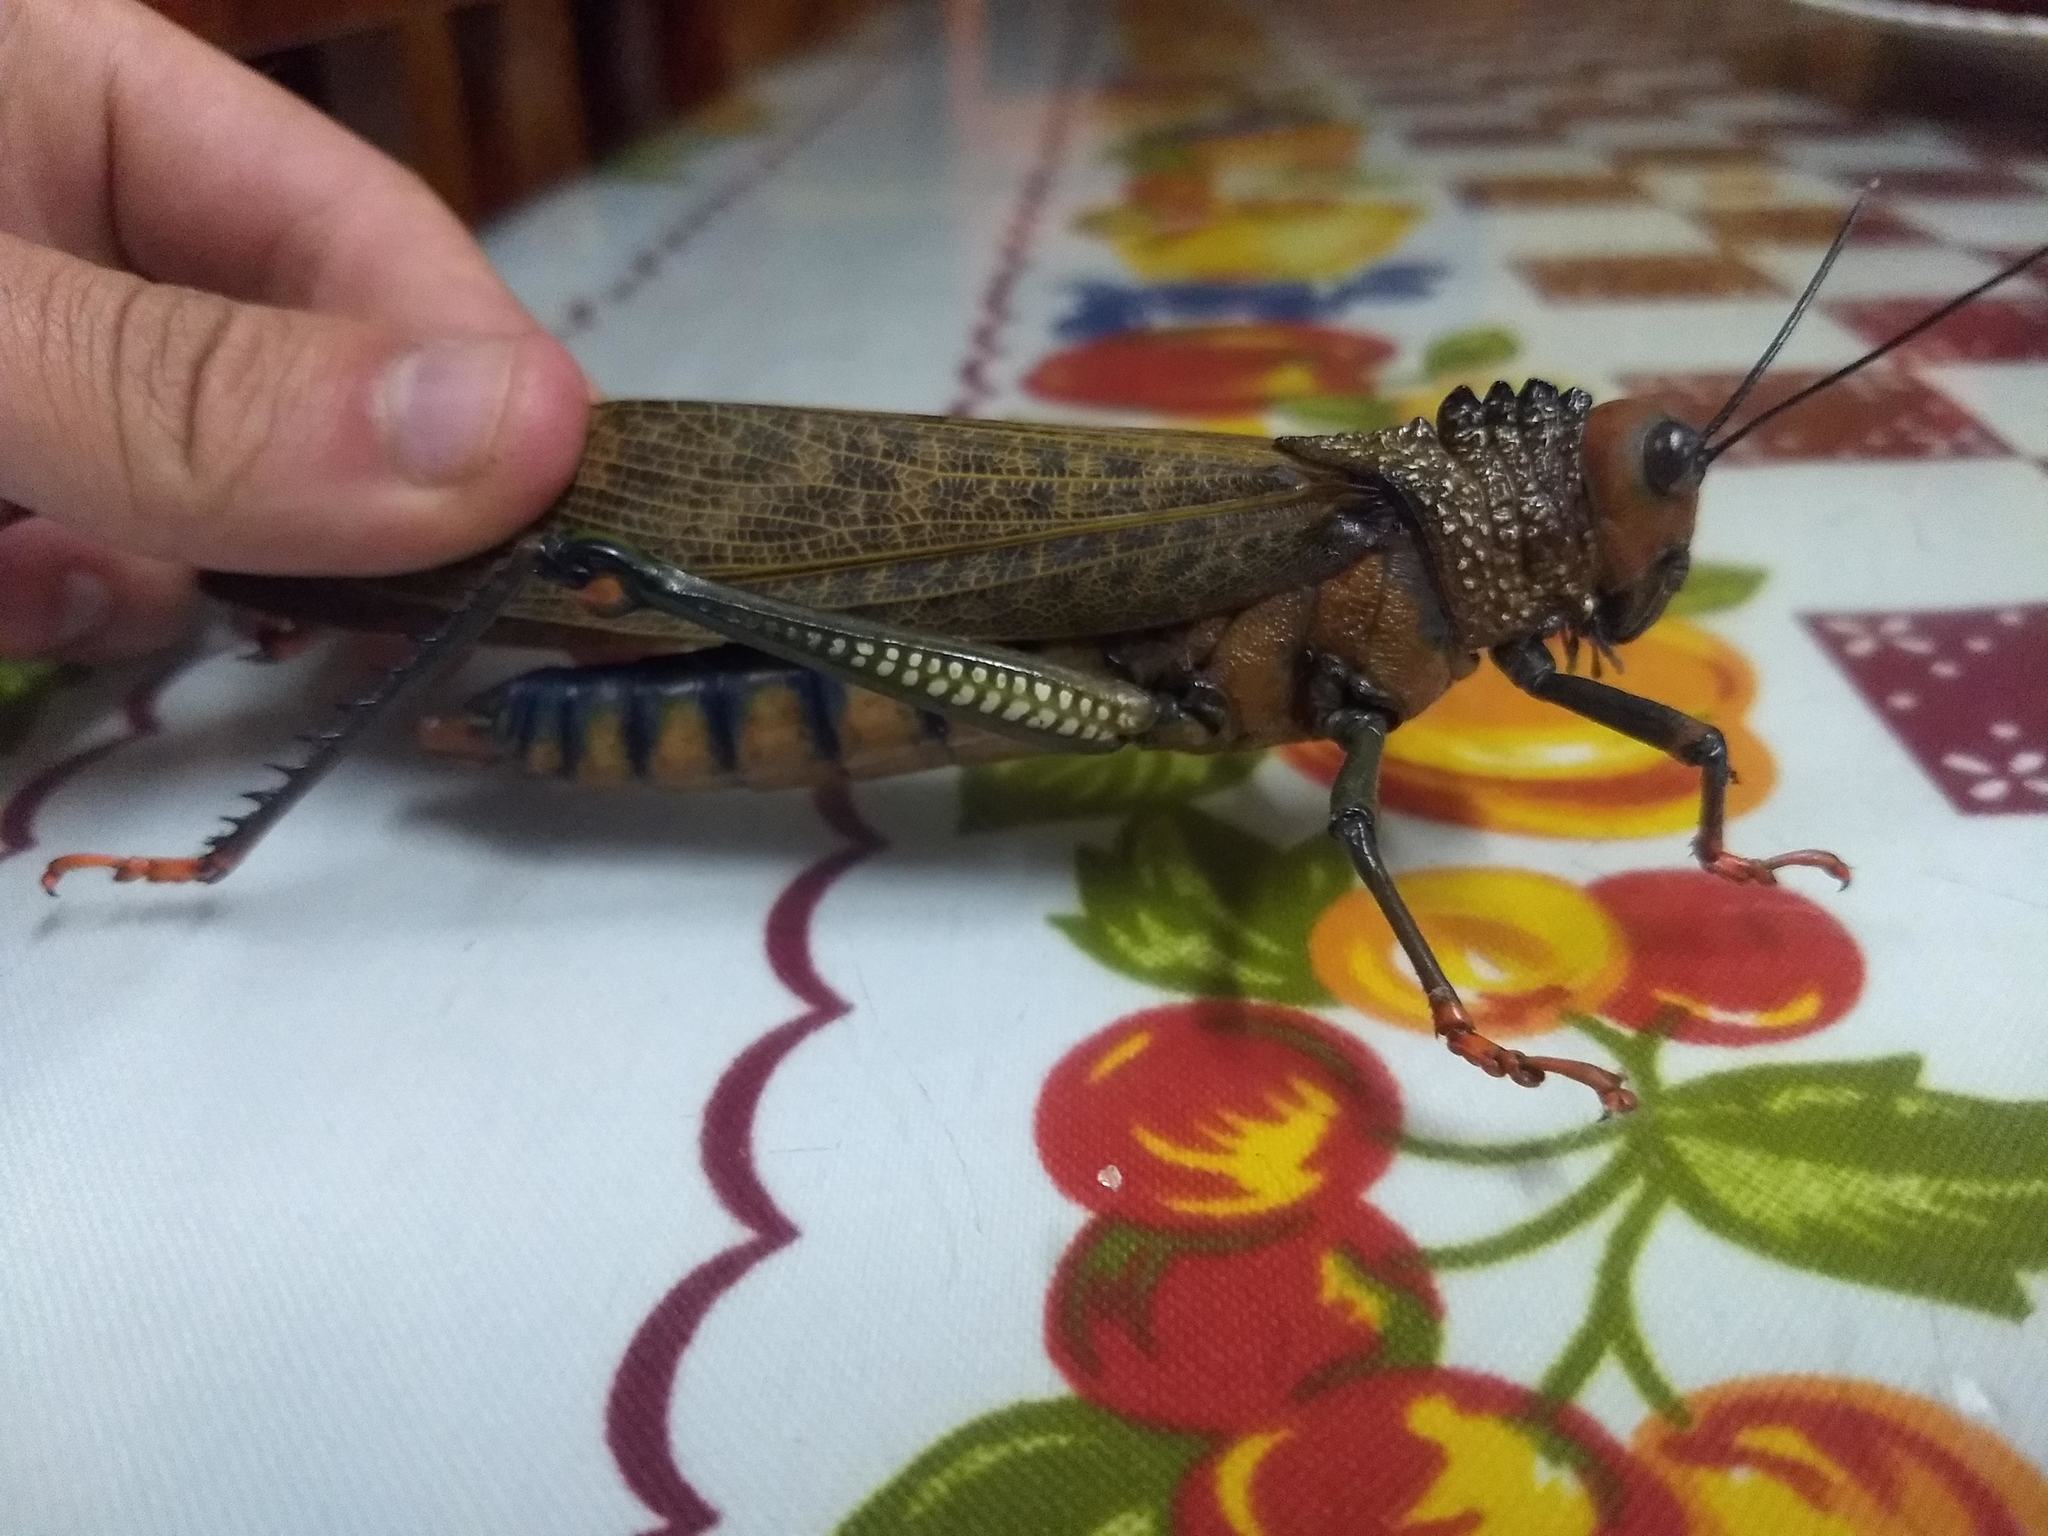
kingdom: Animalia
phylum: Arthropoda
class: Insecta
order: Orthoptera
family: Romaleidae
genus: Tropidacris
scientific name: Tropidacris cristata
